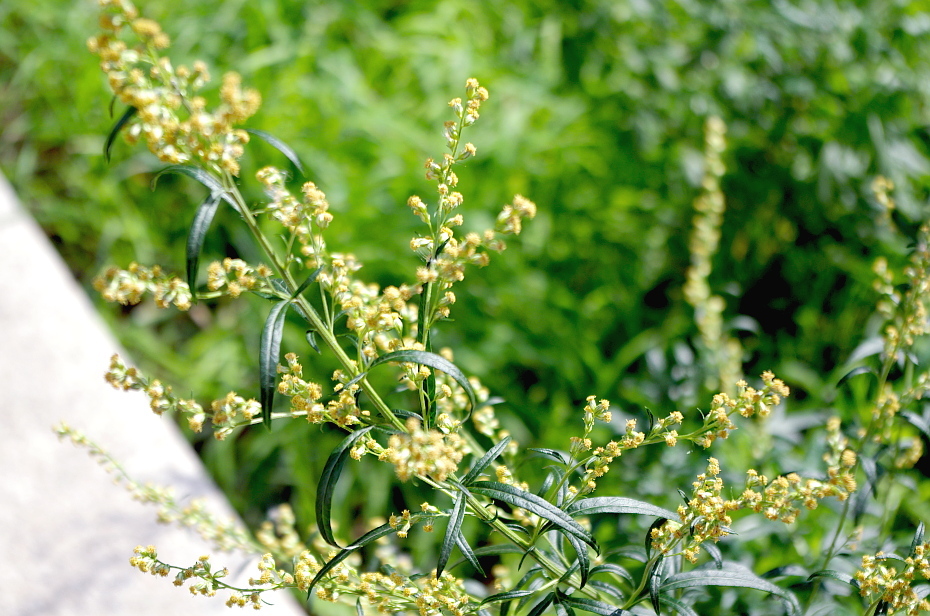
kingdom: Plantae
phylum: Tracheophyta
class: Magnoliopsida
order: Asterales
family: Asteraceae
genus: Artemisia
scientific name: Artemisia vulgaris
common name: Mugwort
